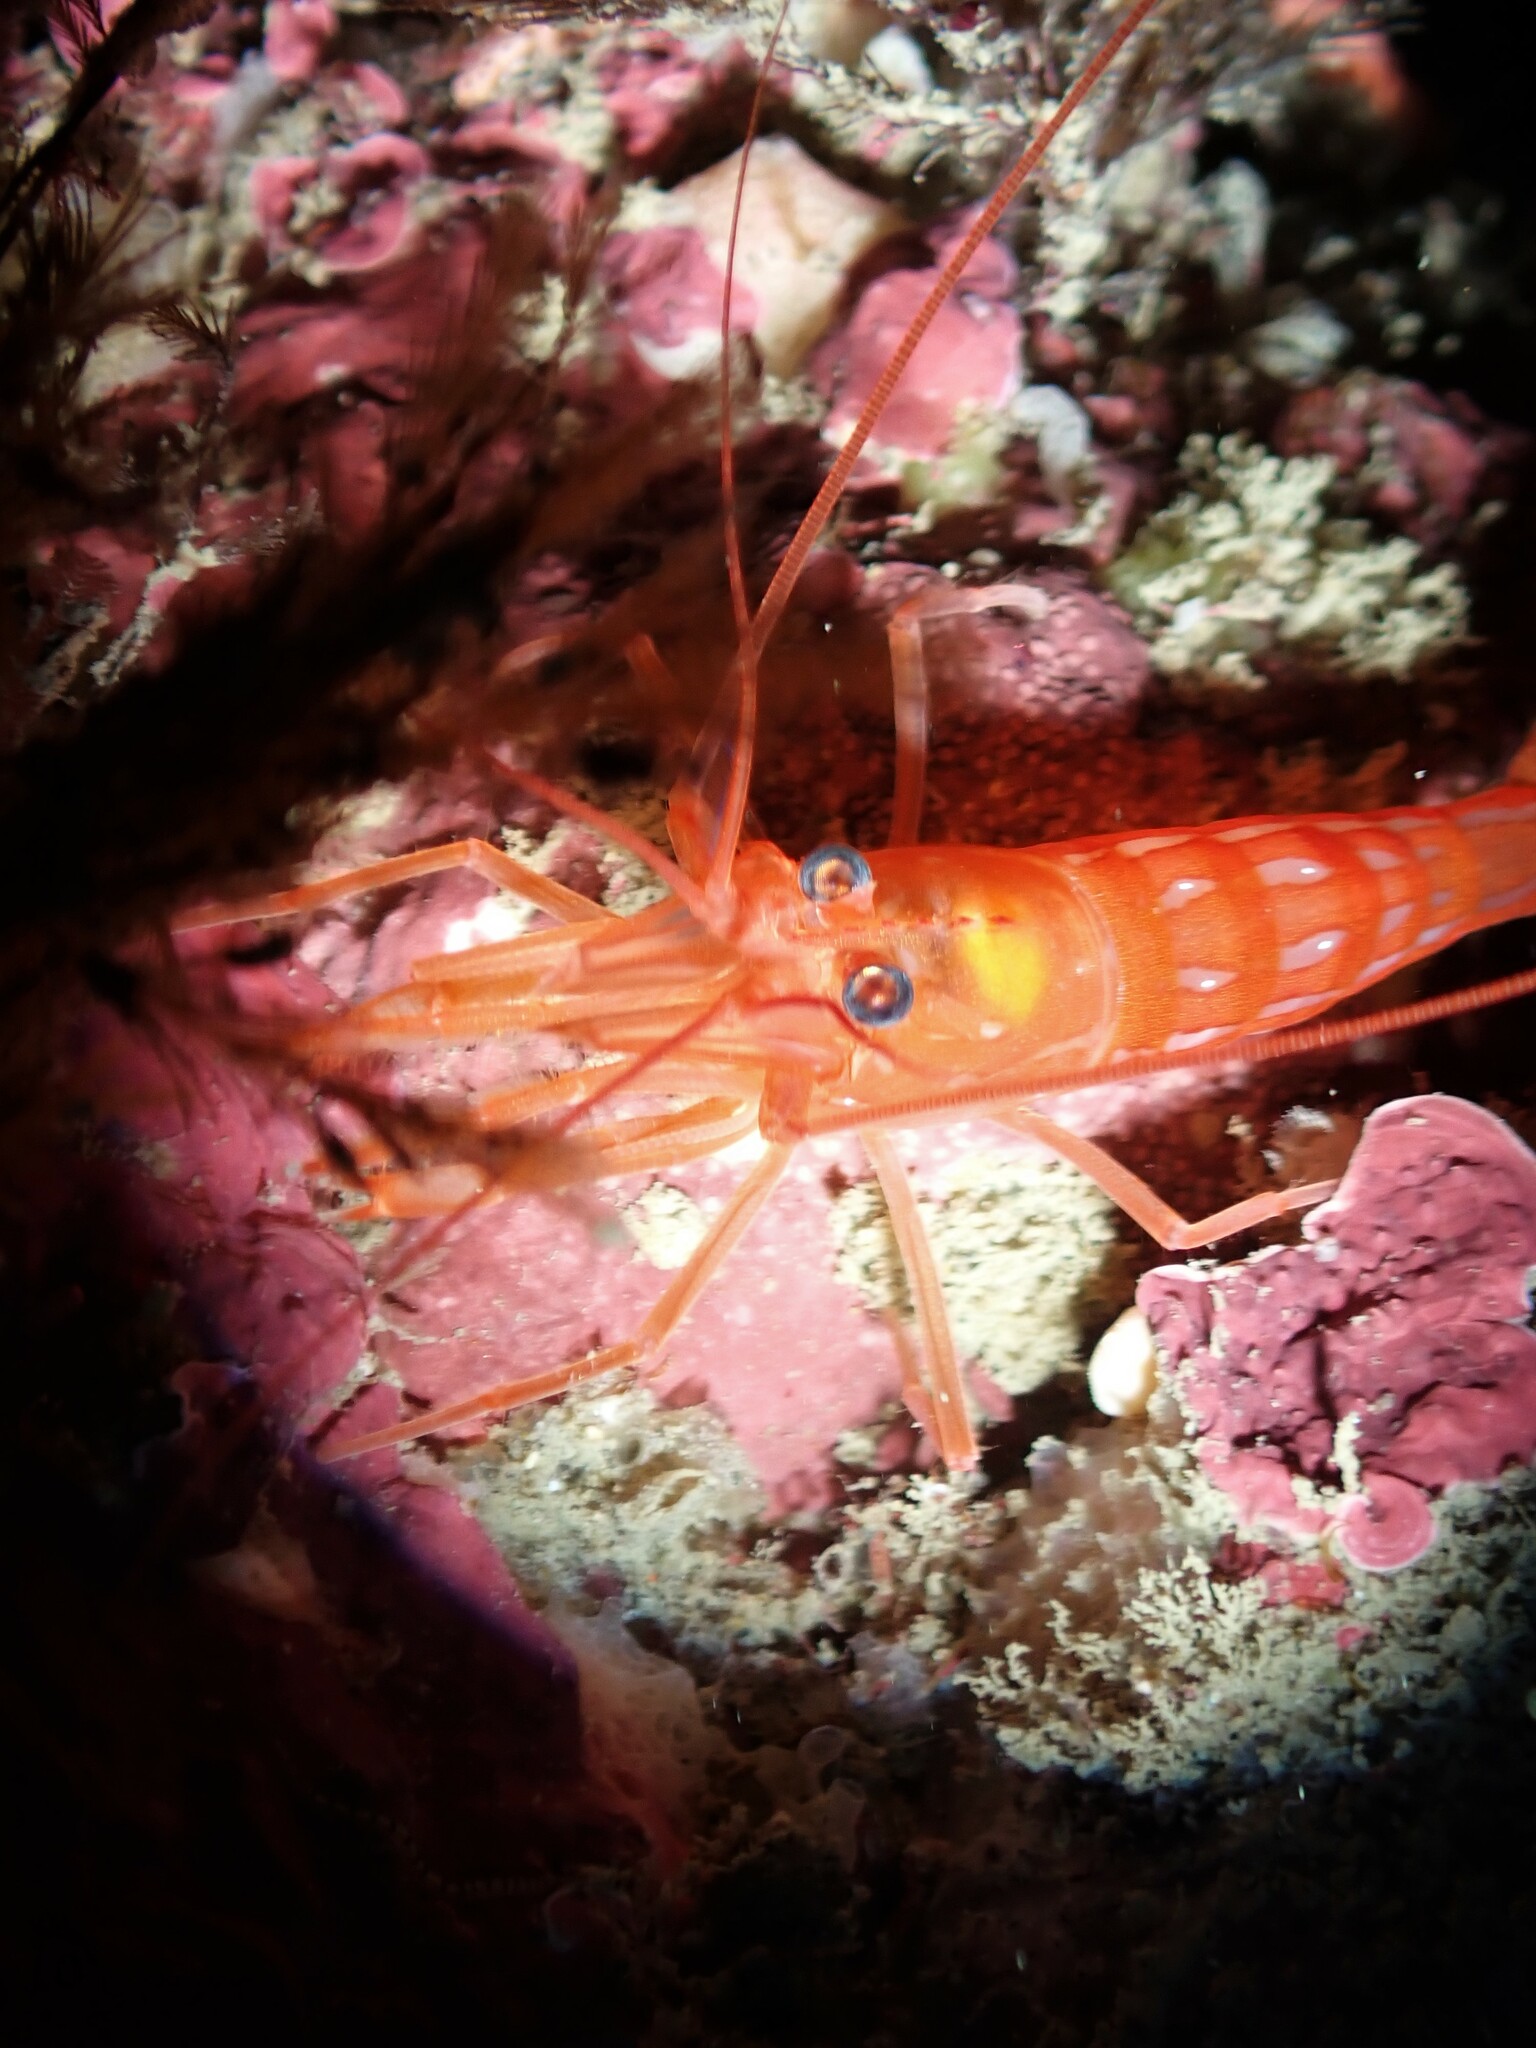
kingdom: Animalia
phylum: Arthropoda
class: Malacostraca
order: Decapoda
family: Lysmatidae
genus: Lysmata
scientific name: Lysmata morelandi
